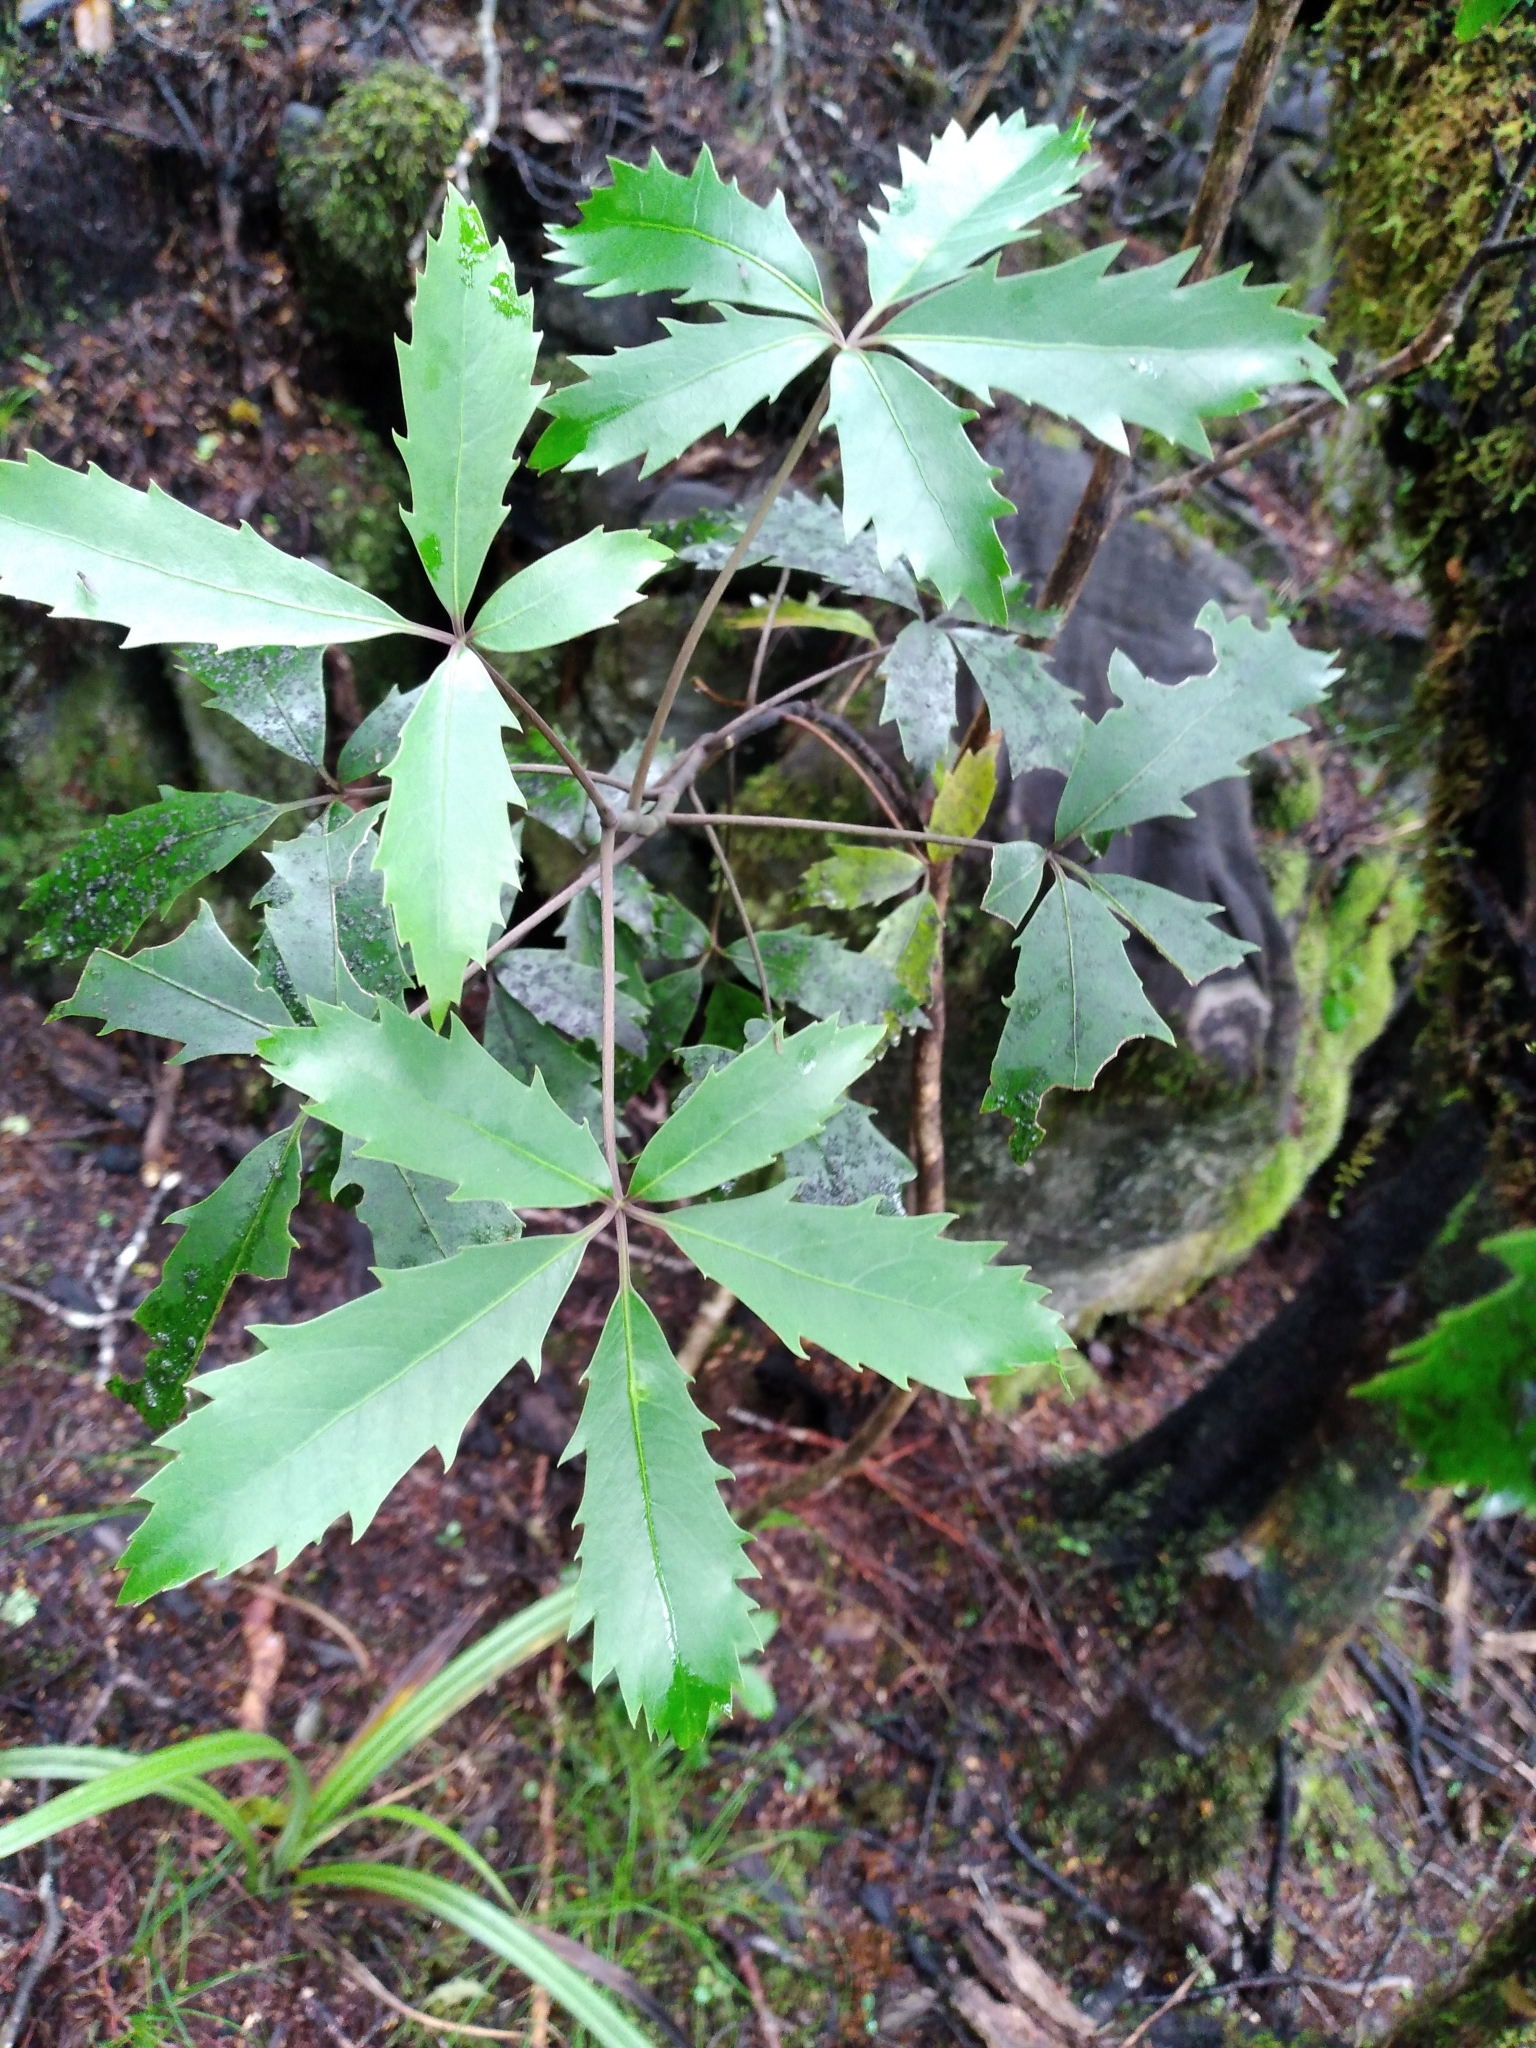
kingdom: Plantae
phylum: Tracheophyta
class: Magnoliopsida
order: Apiales
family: Araliaceae
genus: Neopanax
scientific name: Neopanax macintyrei
